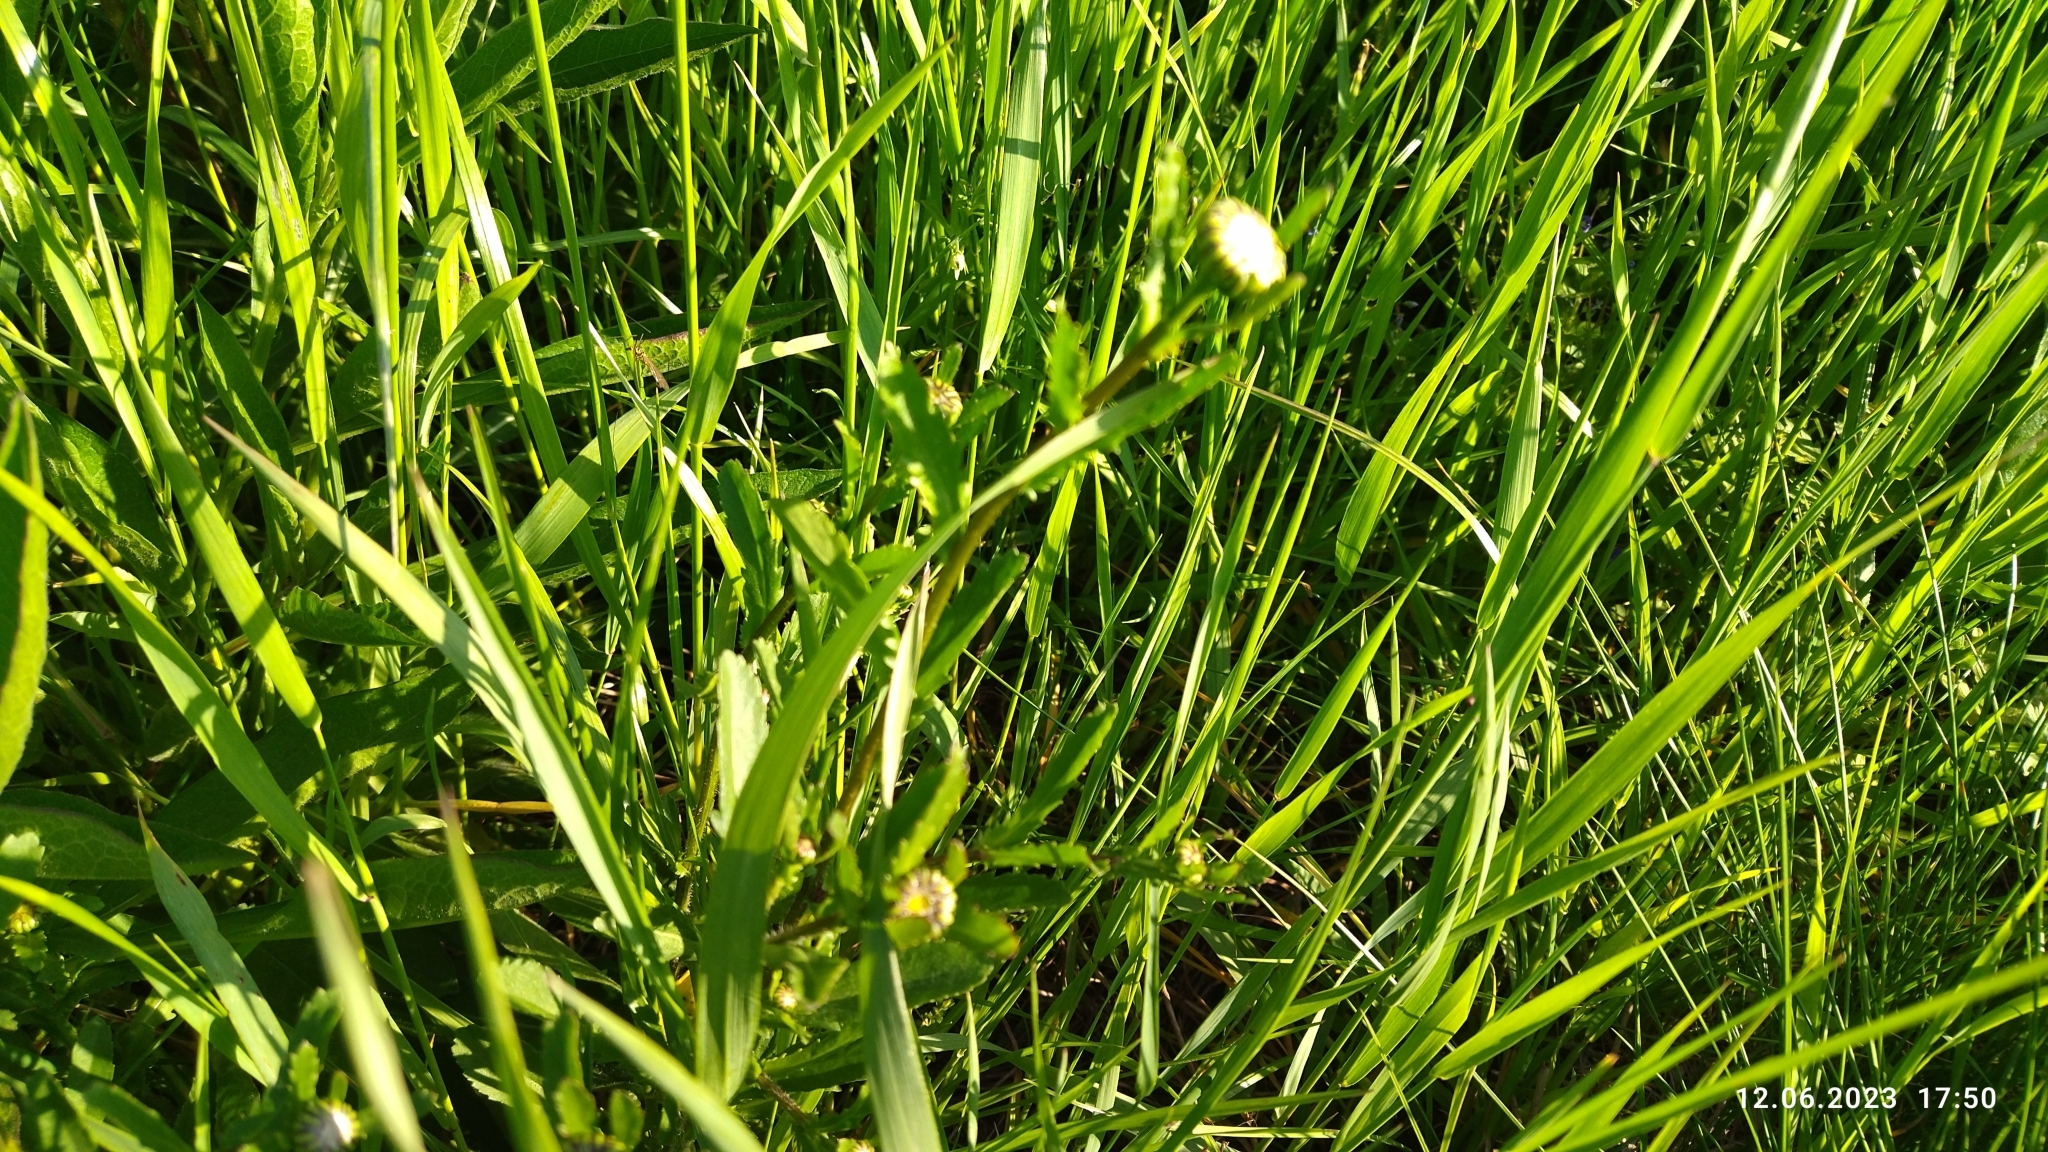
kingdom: Plantae
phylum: Tracheophyta
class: Magnoliopsida
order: Asterales
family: Asteraceae
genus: Leucanthemum
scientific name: Leucanthemum vulgare
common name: Oxeye daisy
